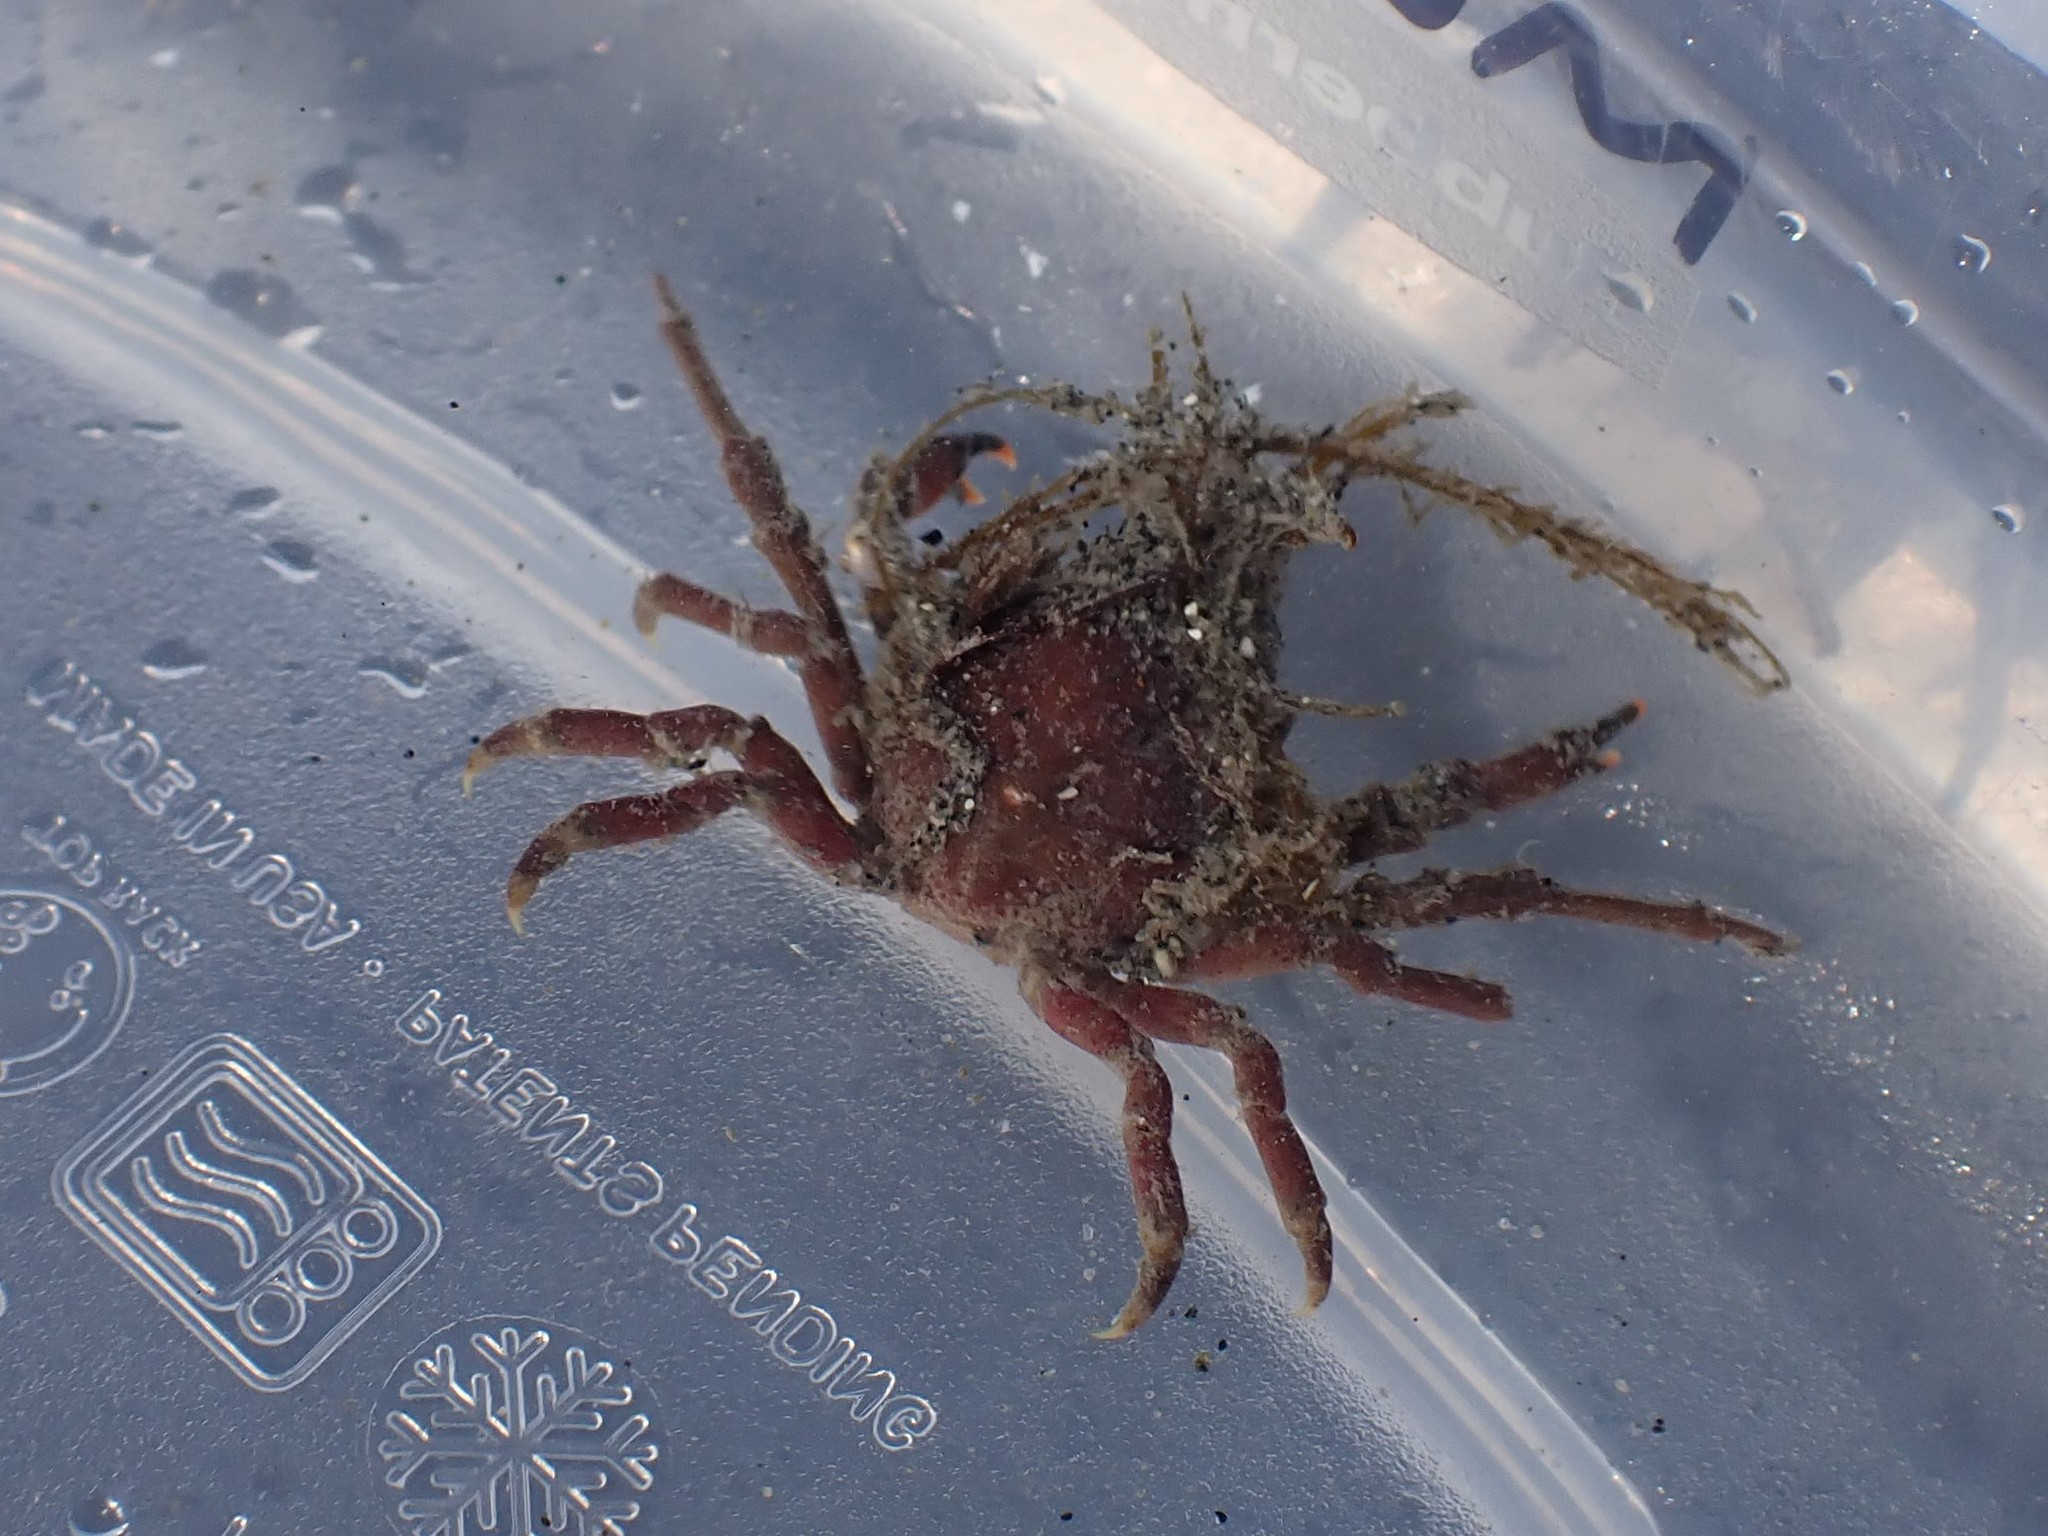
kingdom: Animalia
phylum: Arthropoda
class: Malacostraca
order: Decapoda
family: Epialtidae
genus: Pugettia
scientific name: Pugettia gracilis
